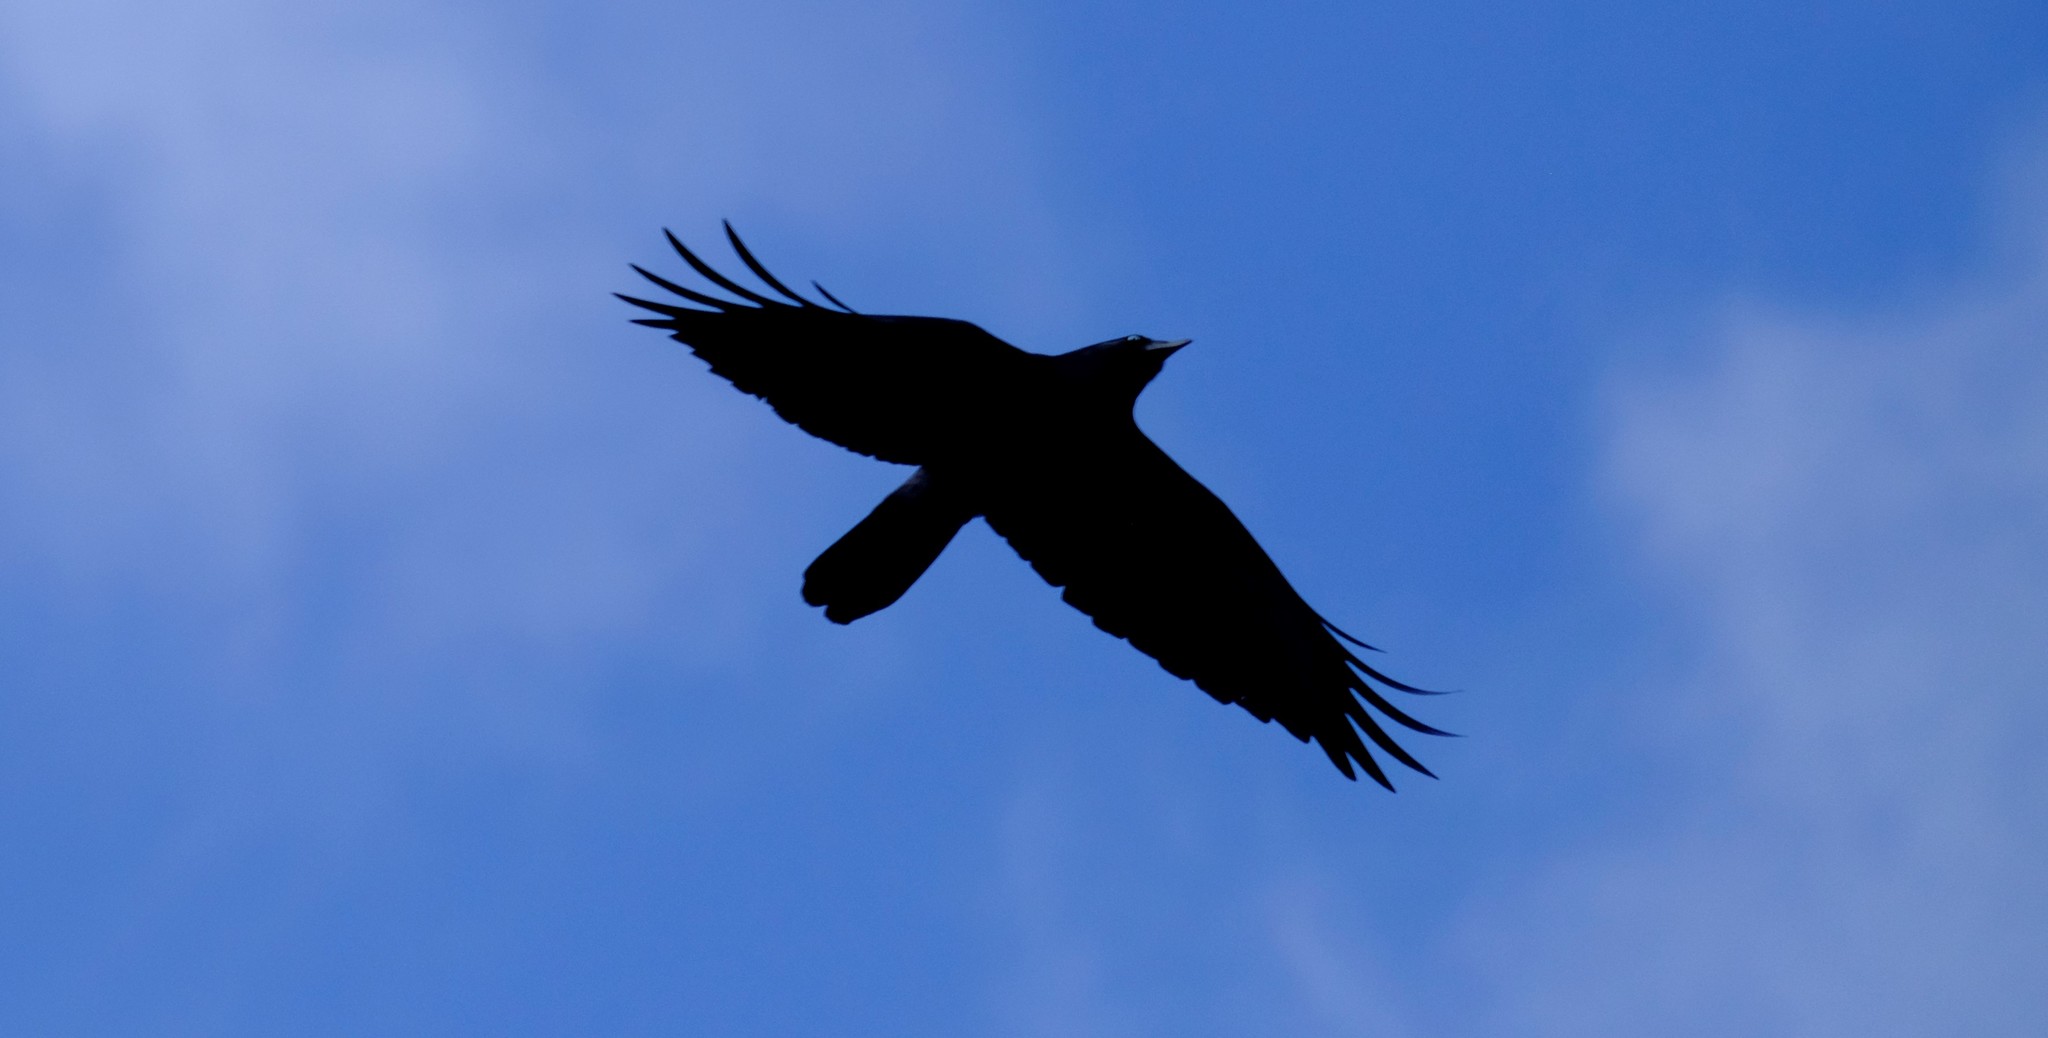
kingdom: Animalia
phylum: Chordata
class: Aves
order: Passeriformes
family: Corvidae
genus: Corvus
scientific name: Corvus
